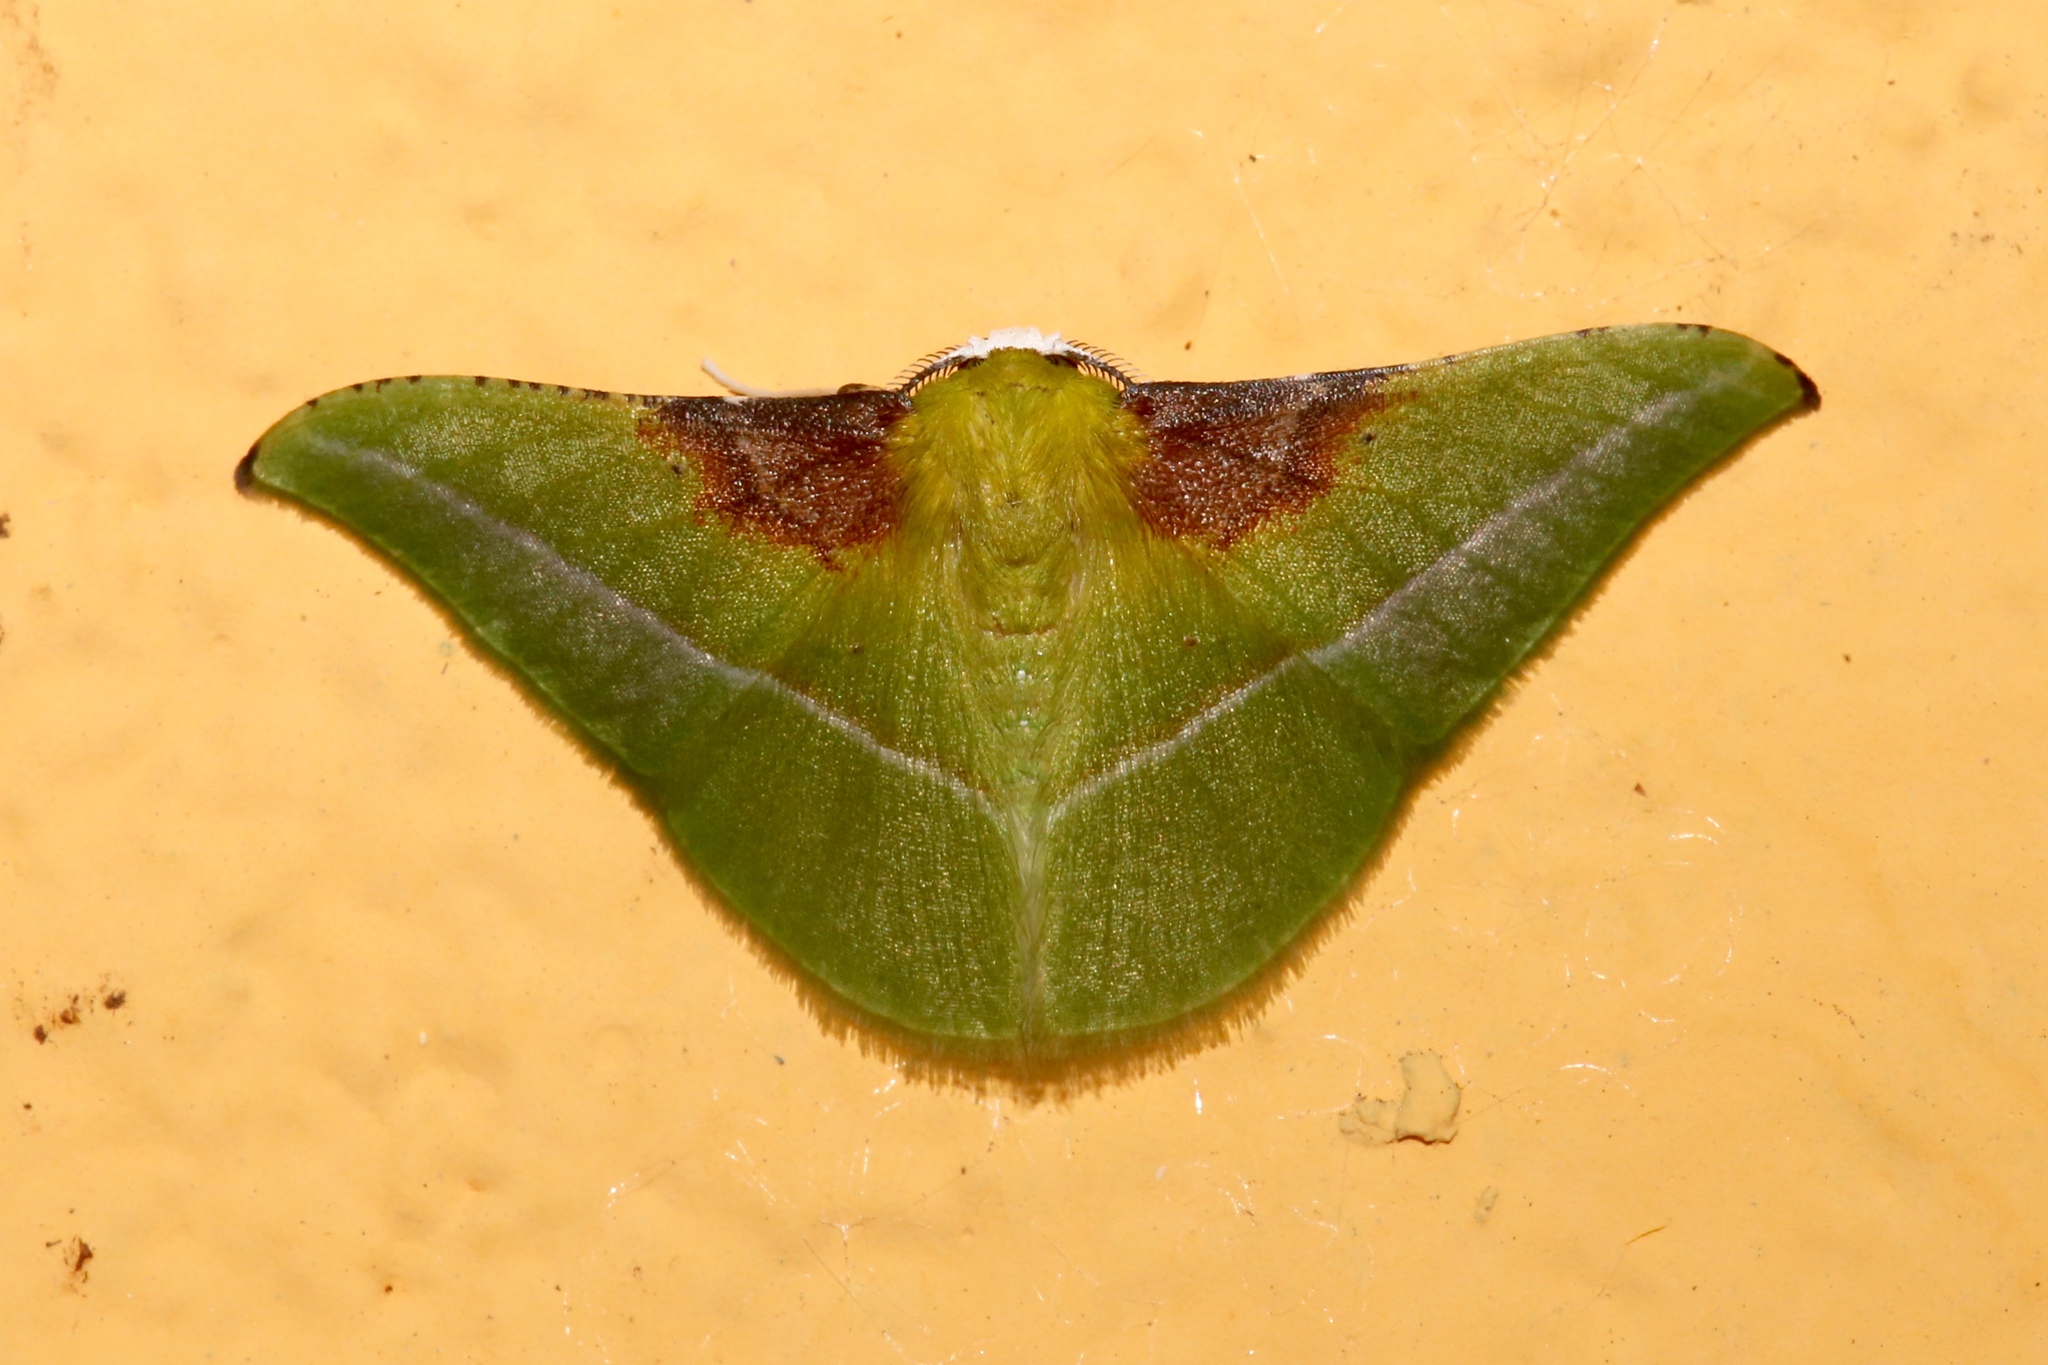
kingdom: Animalia
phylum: Arthropoda
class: Insecta
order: Lepidoptera
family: Geometridae
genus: Tachyphyle
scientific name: Tachyphyle basiplaga
